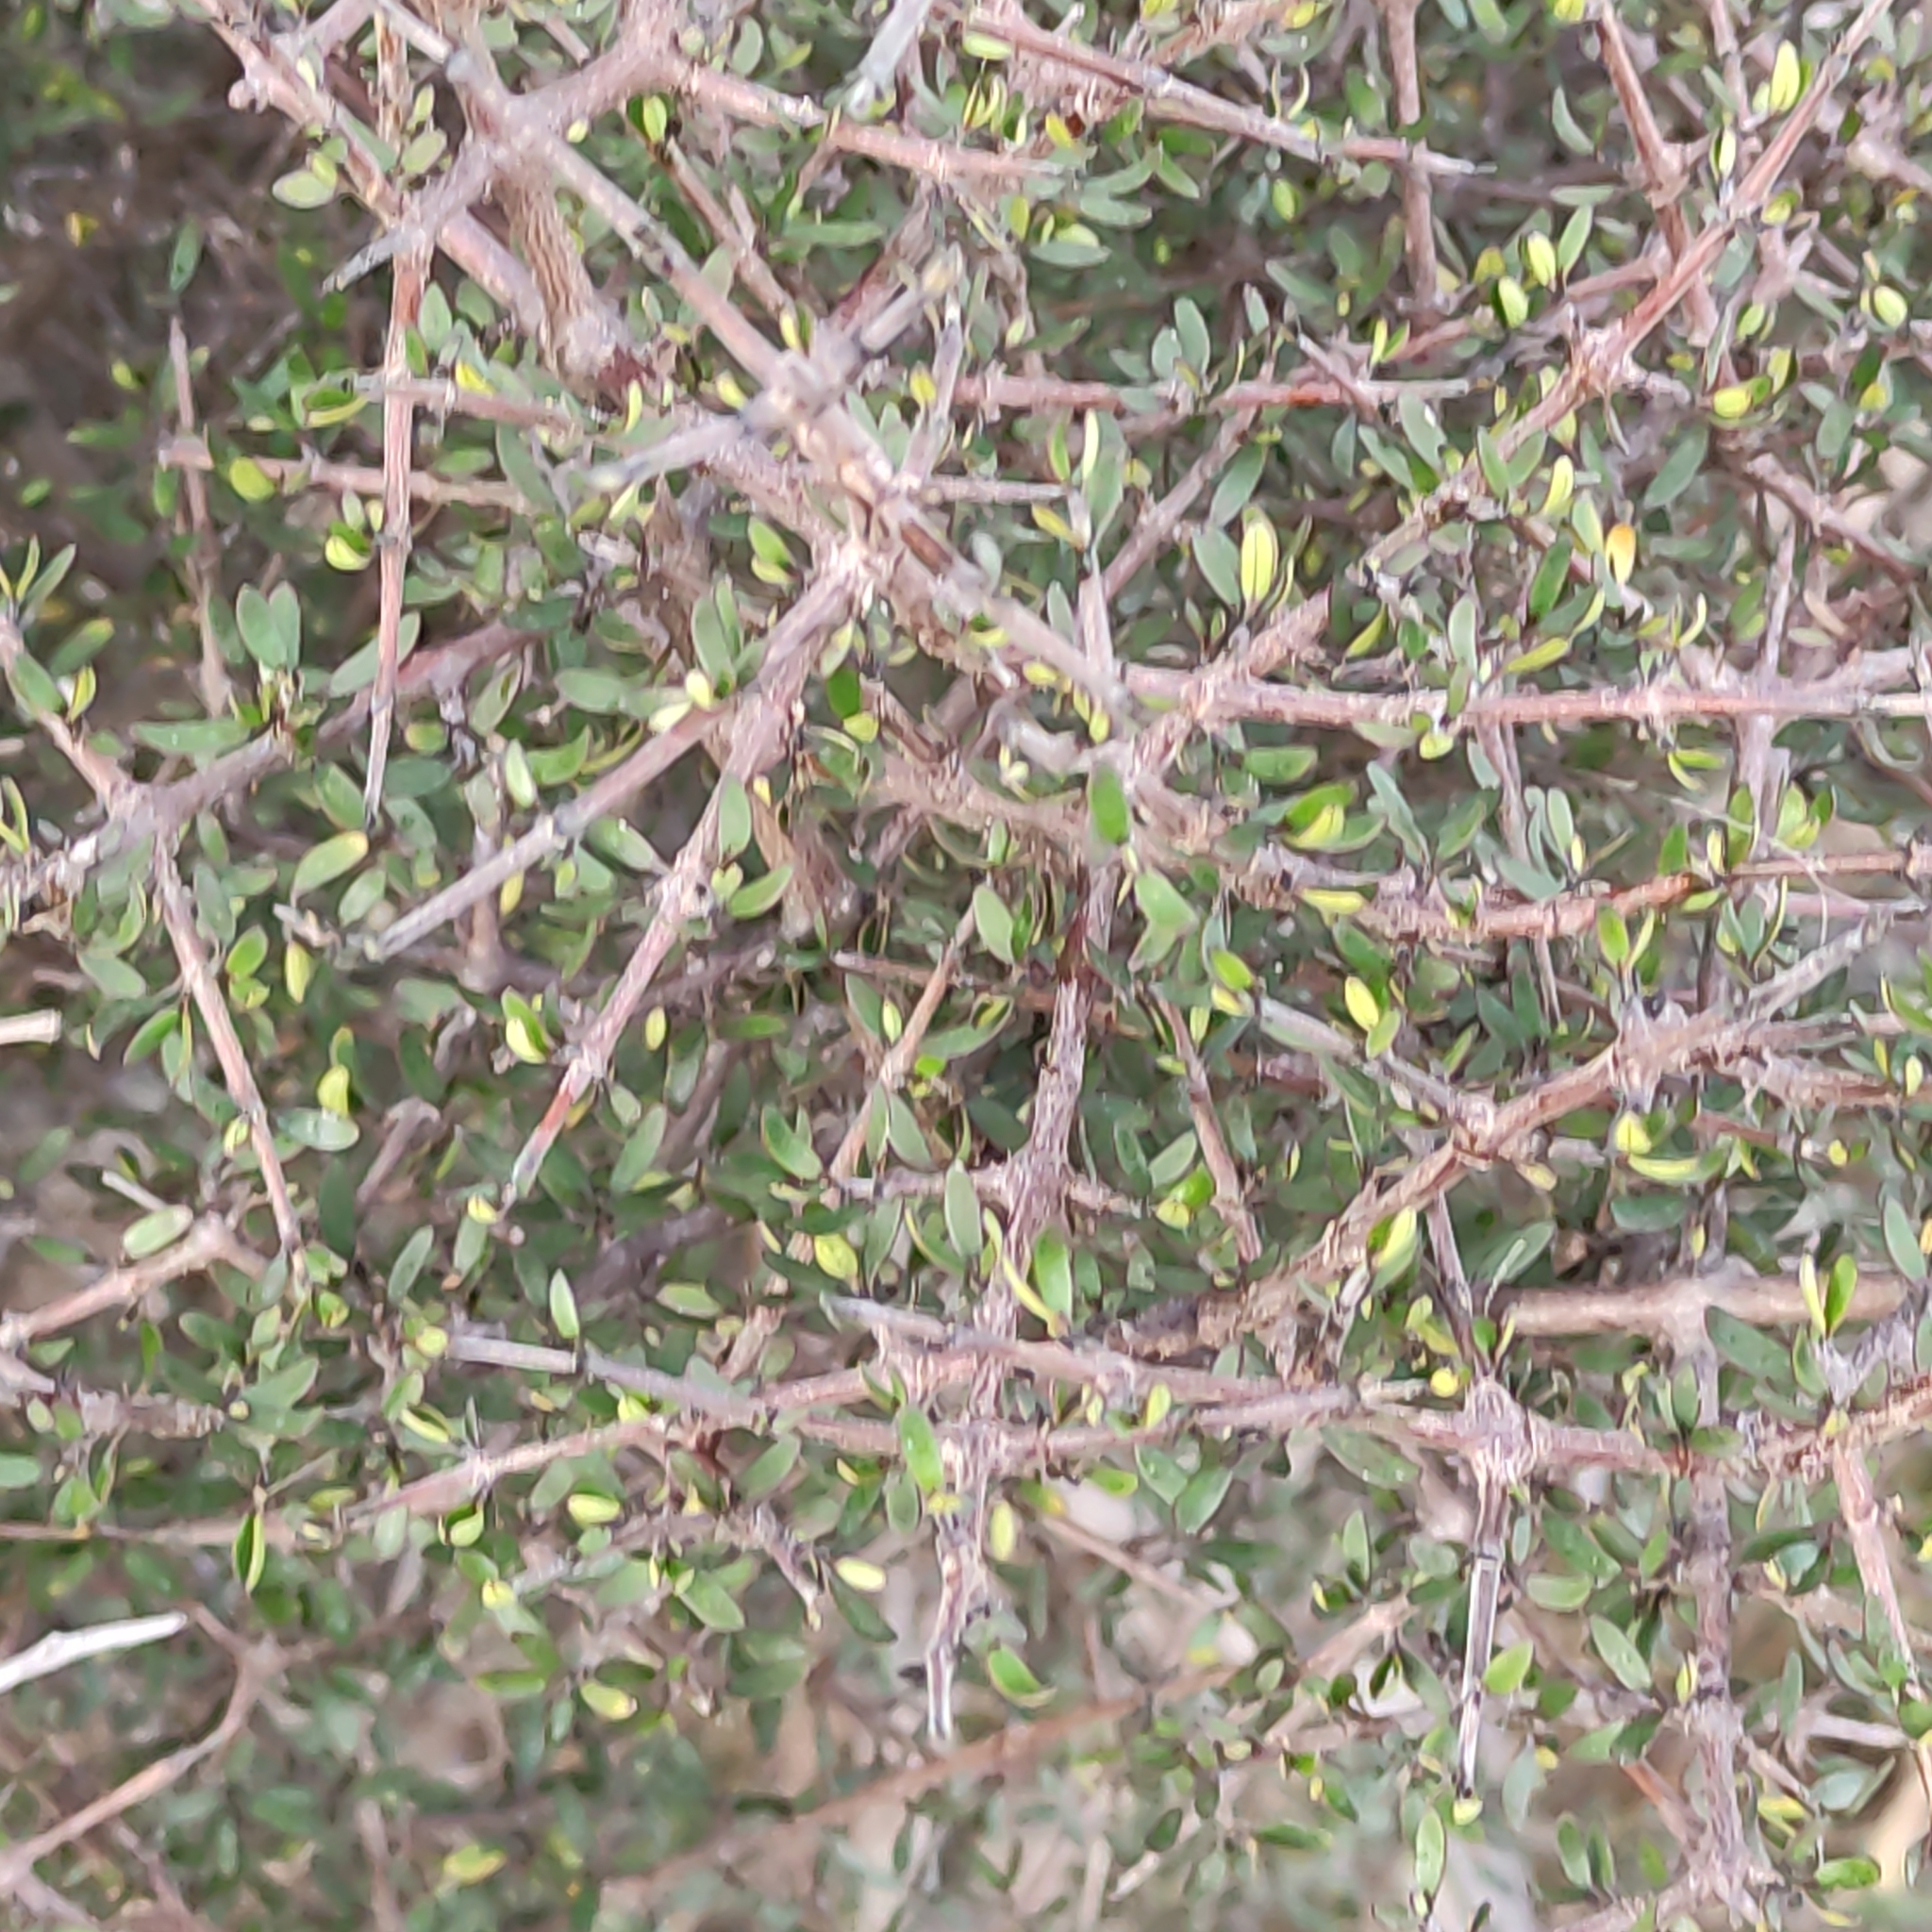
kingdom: Plantae
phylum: Tracheophyta
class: Magnoliopsida
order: Gentianales
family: Rubiaceae
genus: Coprosma
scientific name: Coprosma propinqua
